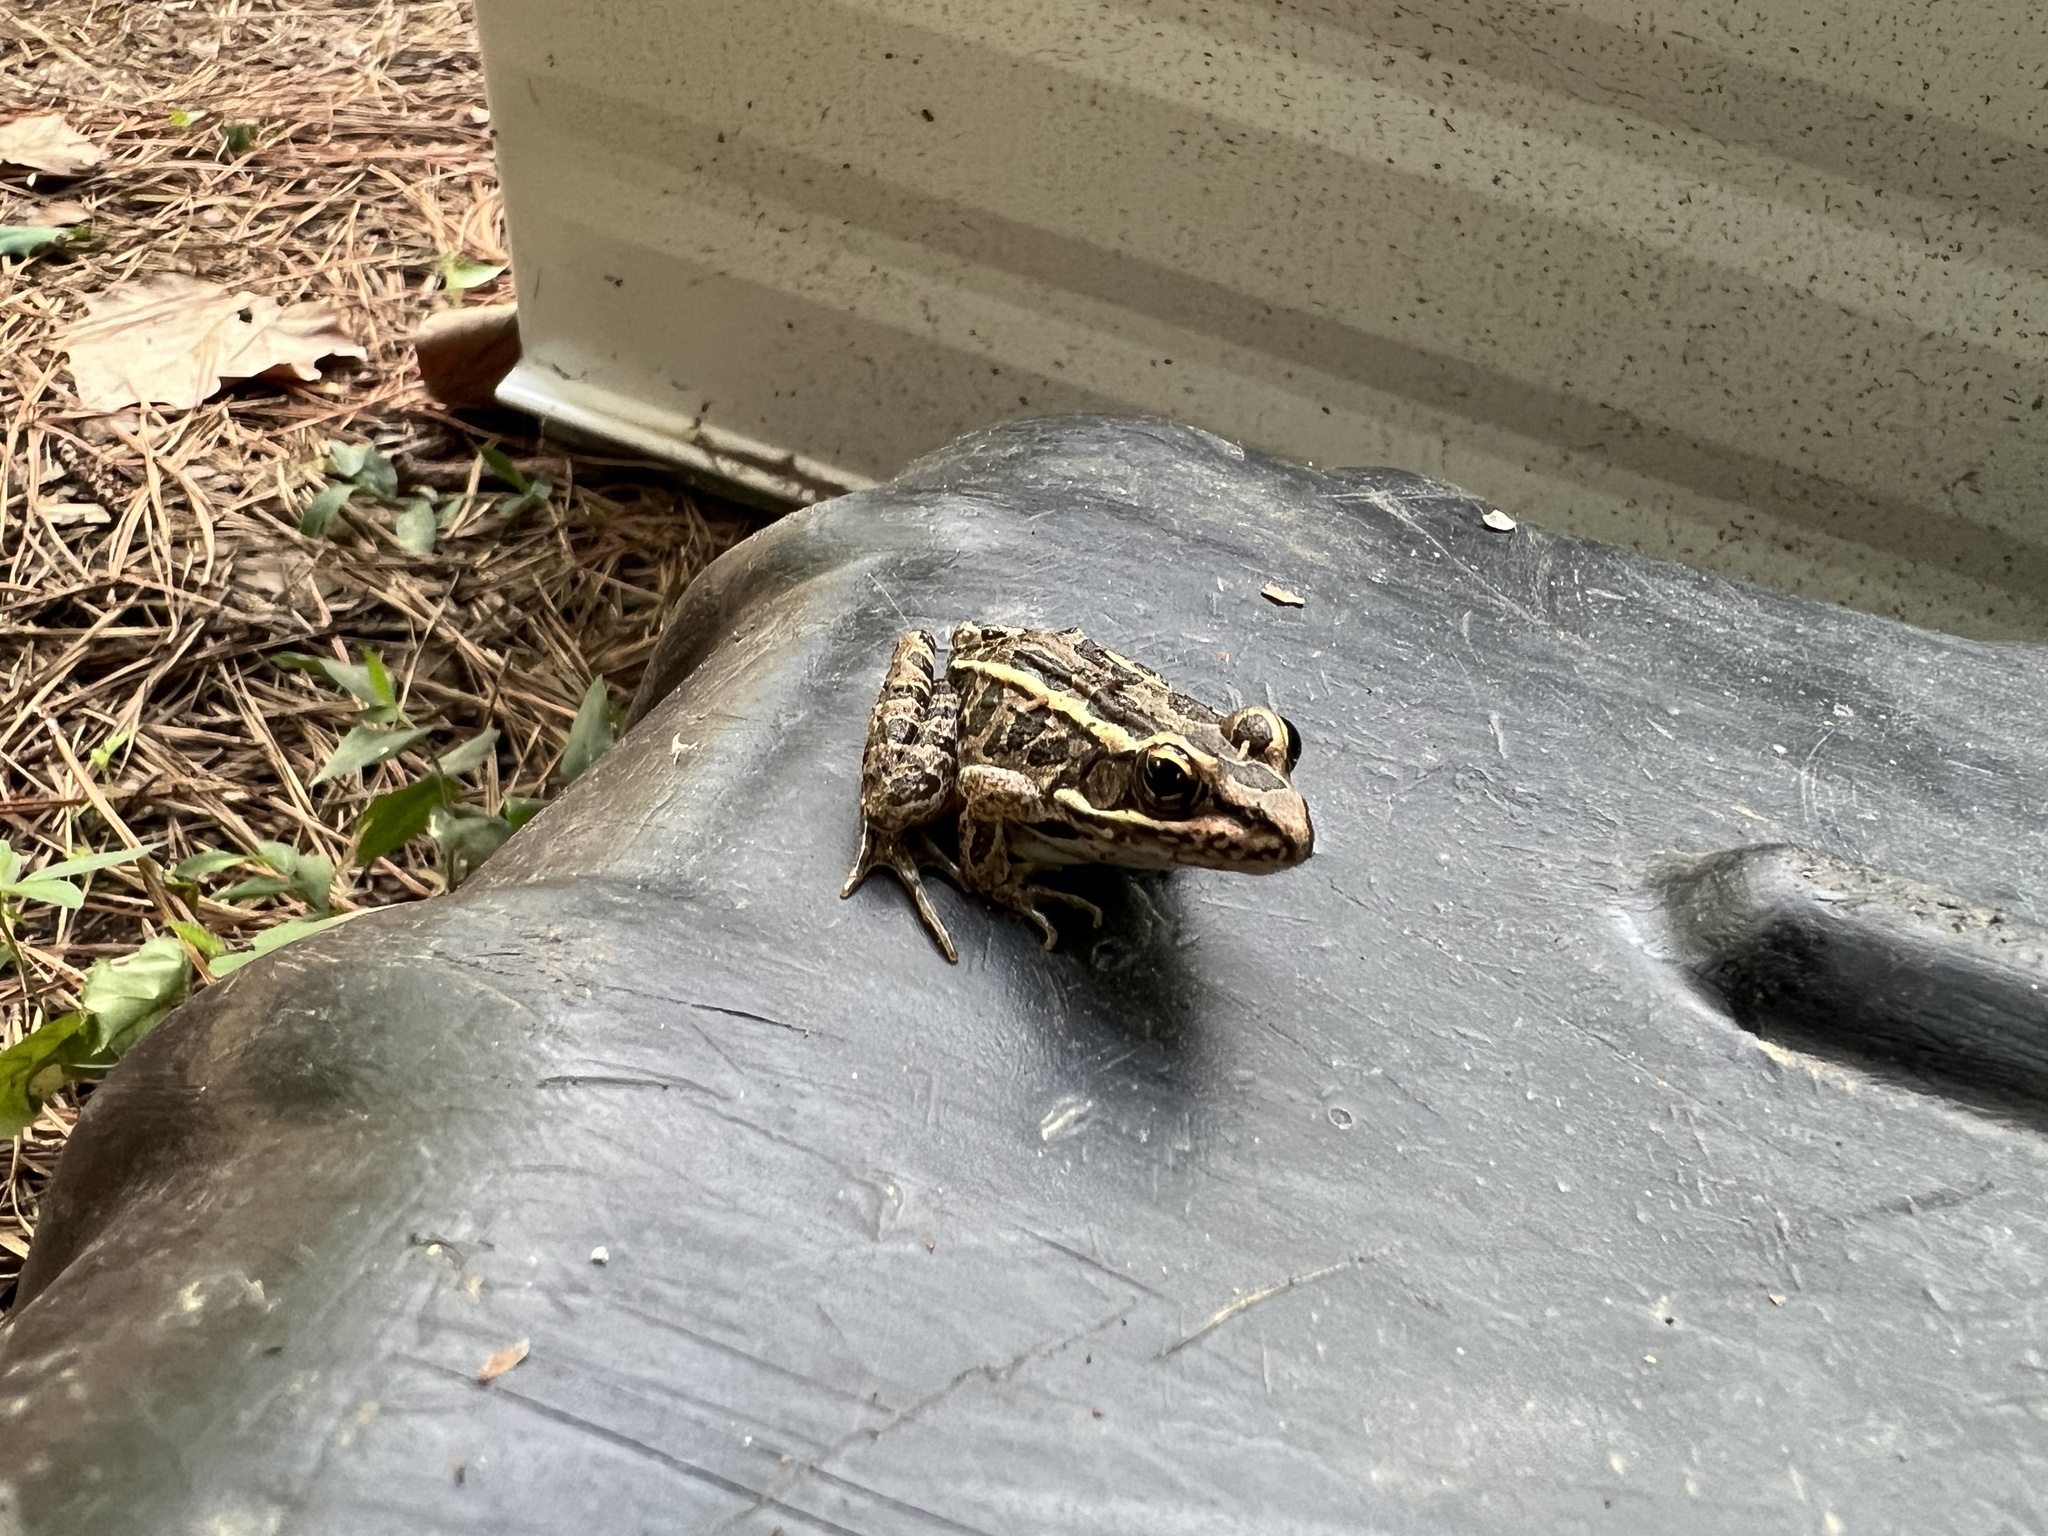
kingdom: Animalia
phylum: Chordata
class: Amphibia
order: Anura
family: Ranidae
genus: Lithobates
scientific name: Lithobates palustris
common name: Pickerel frog
